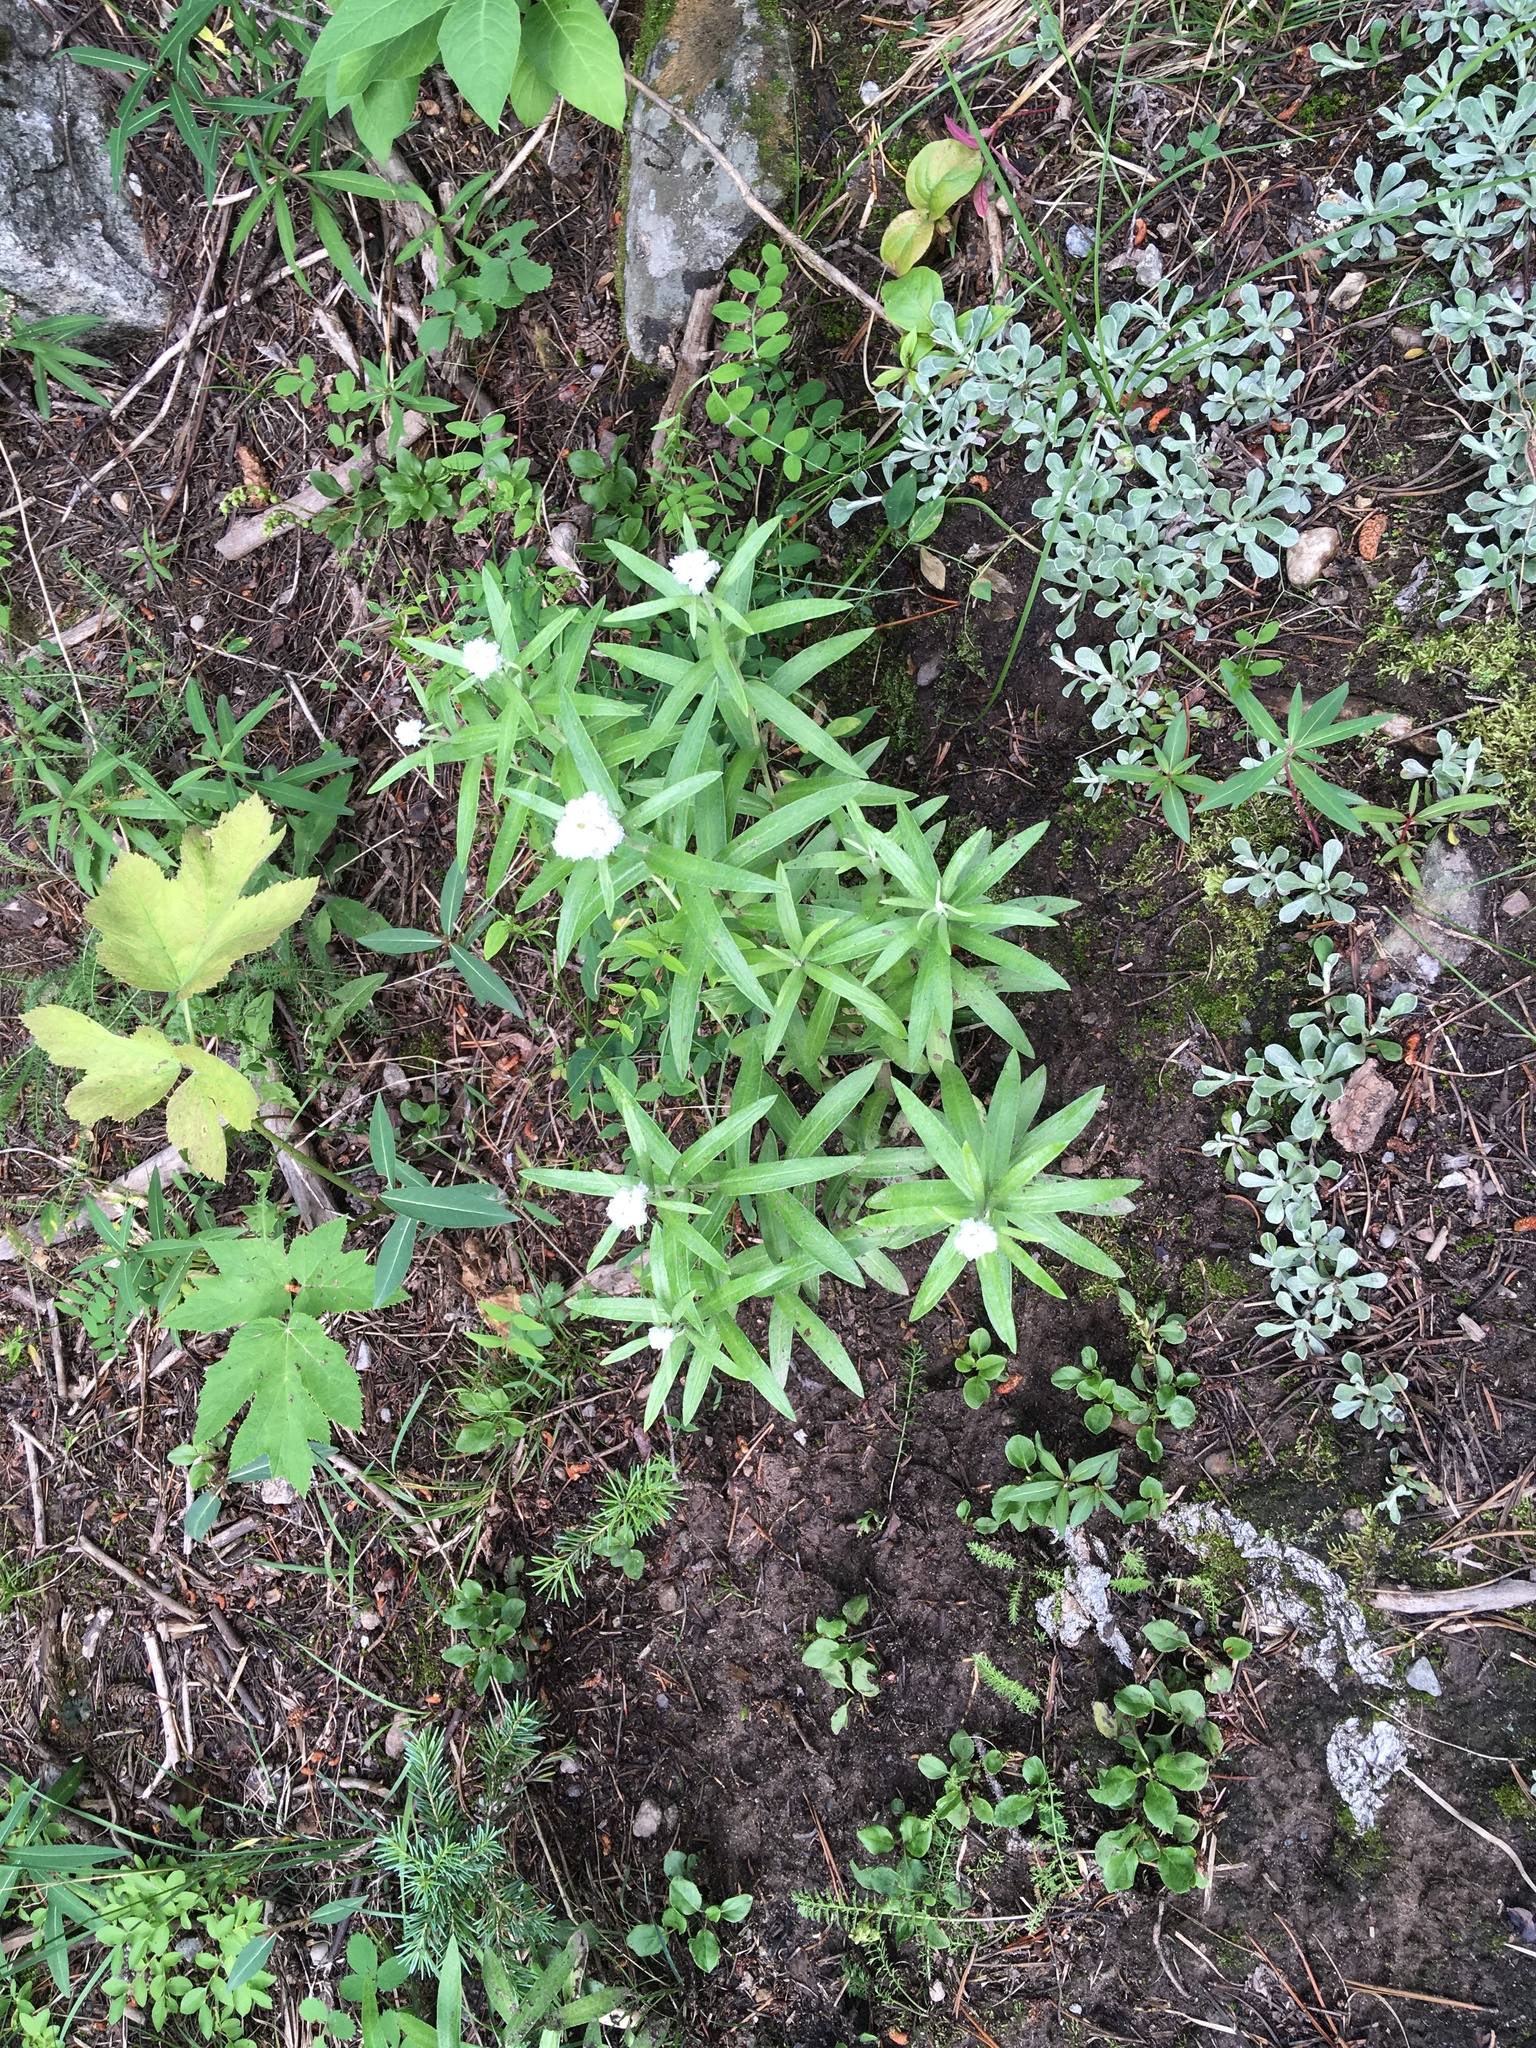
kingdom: Plantae
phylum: Tracheophyta
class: Magnoliopsida
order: Asterales
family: Asteraceae
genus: Anaphalis
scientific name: Anaphalis margaritacea
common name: Pearly everlasting
